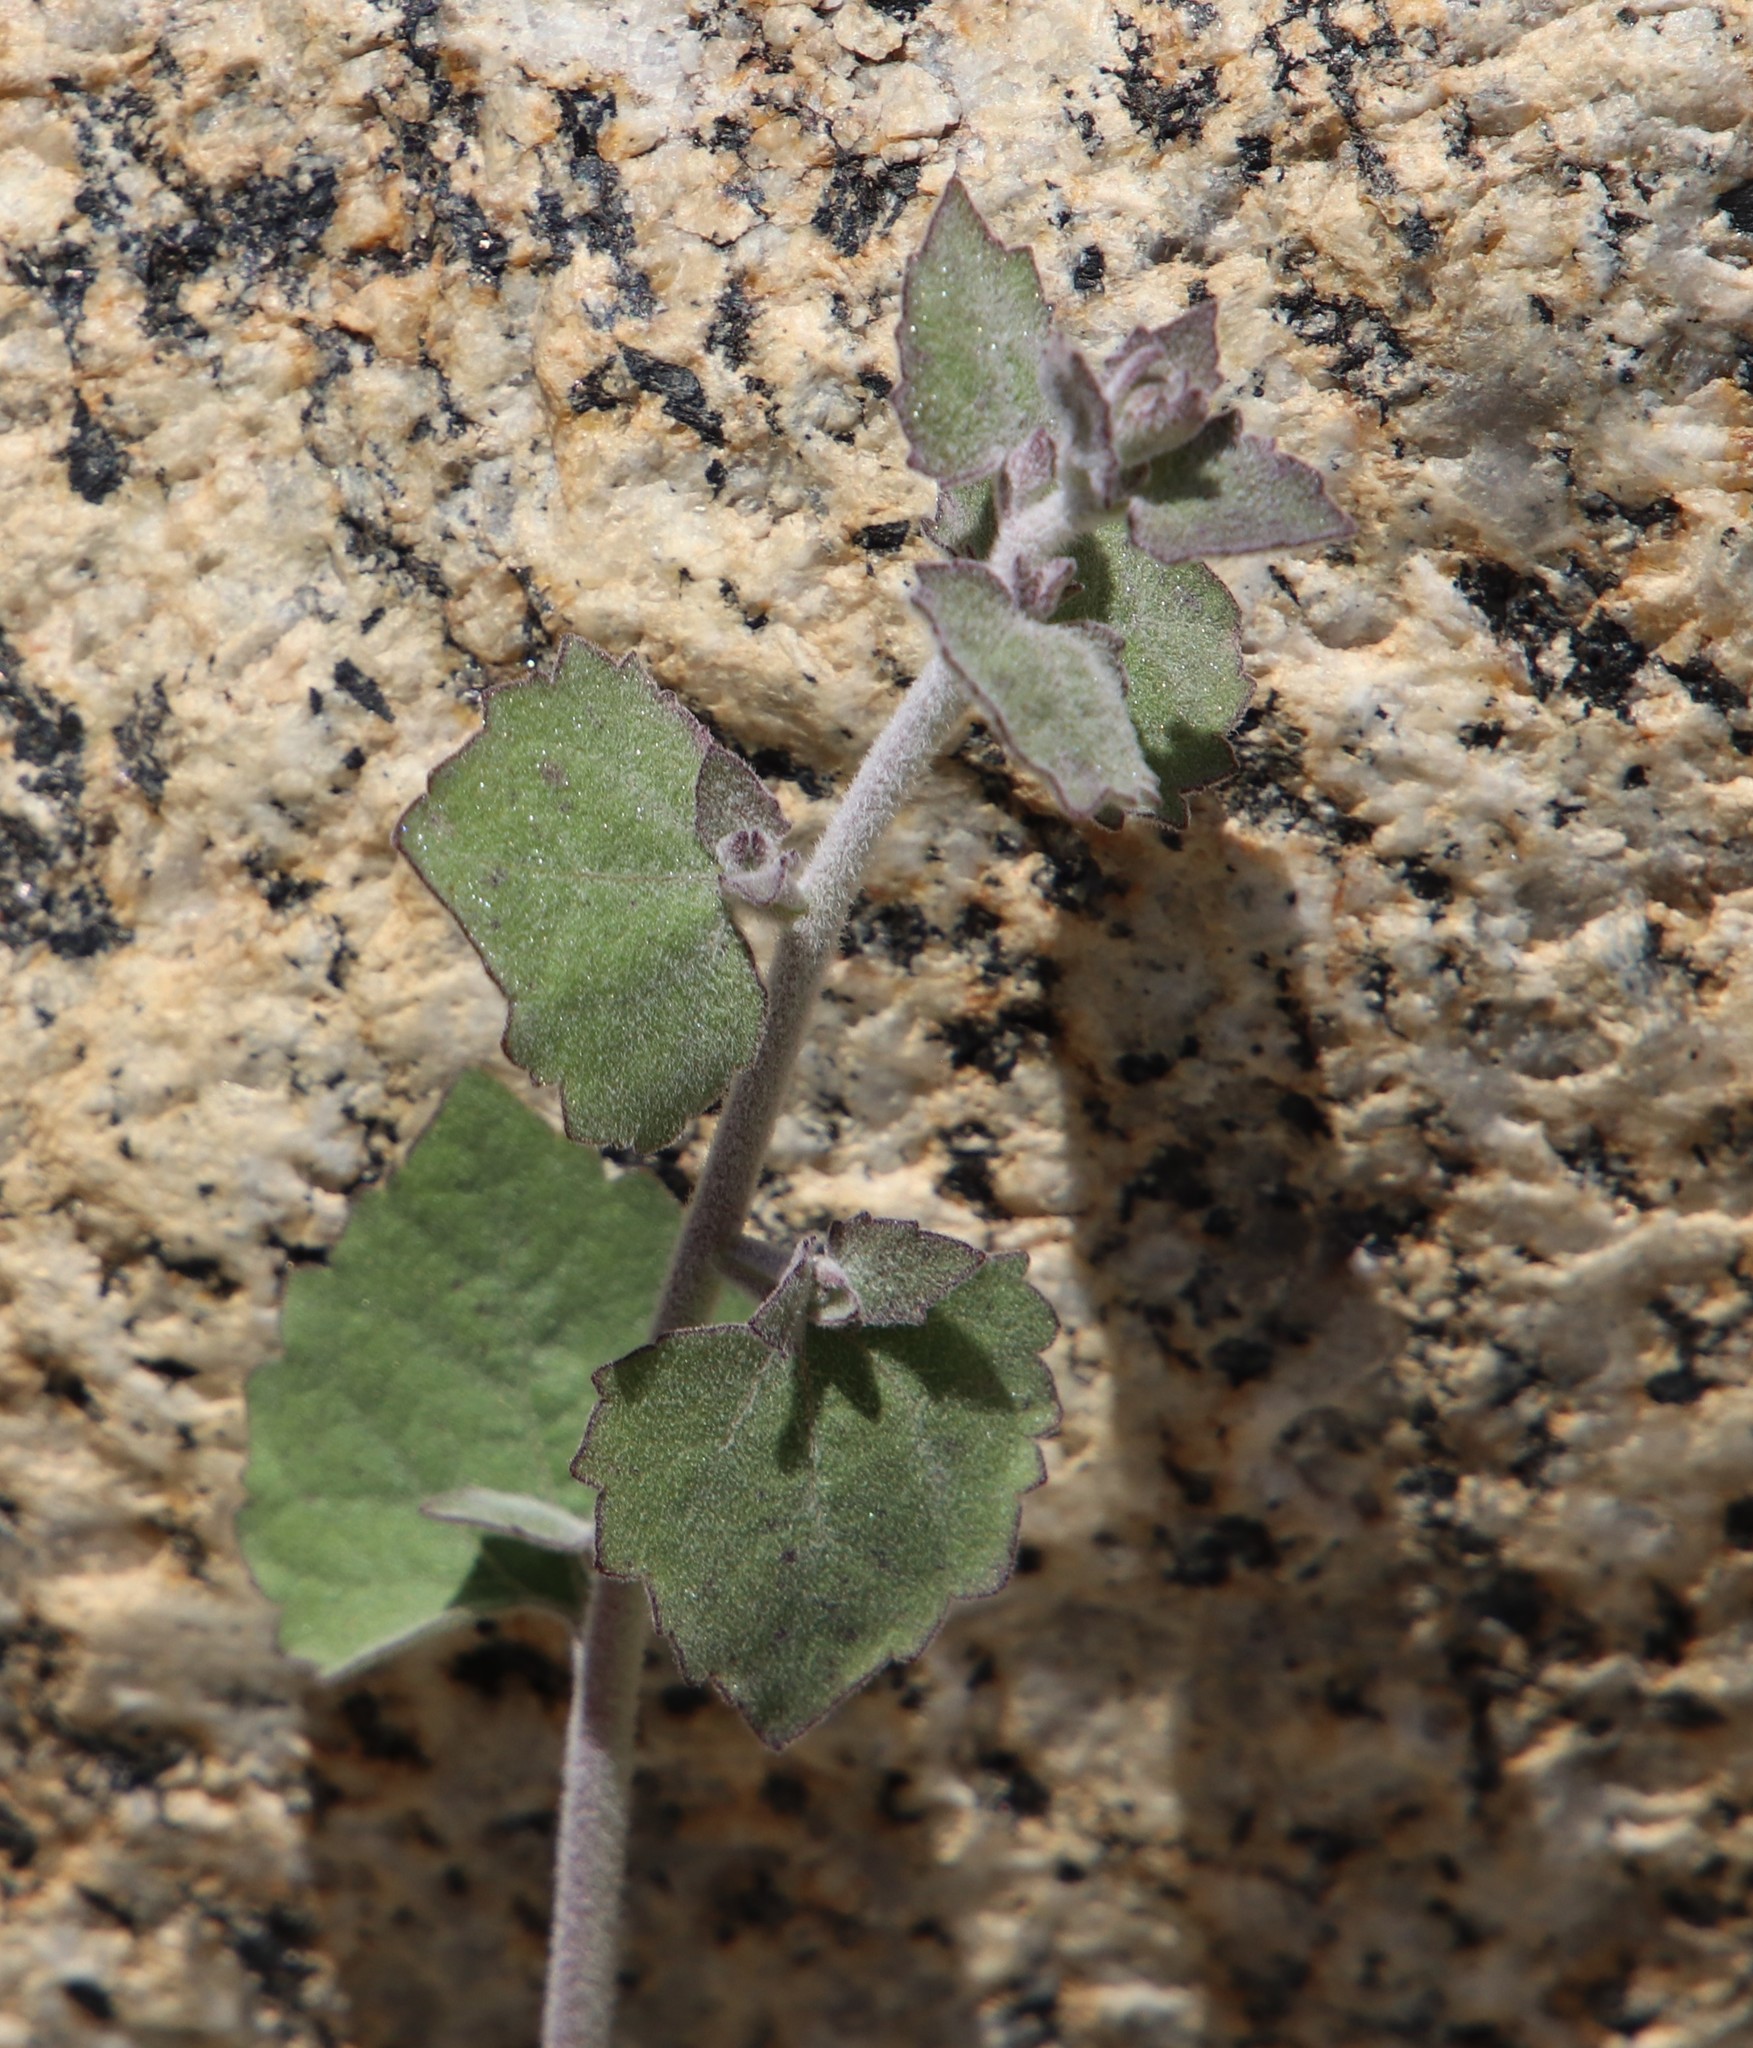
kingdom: Plantae
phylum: Tracheophyta
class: Magnoliopsida
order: Asterales
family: Asteraceae
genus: Brickellia
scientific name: Brickellia californica
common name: California brickellbush
